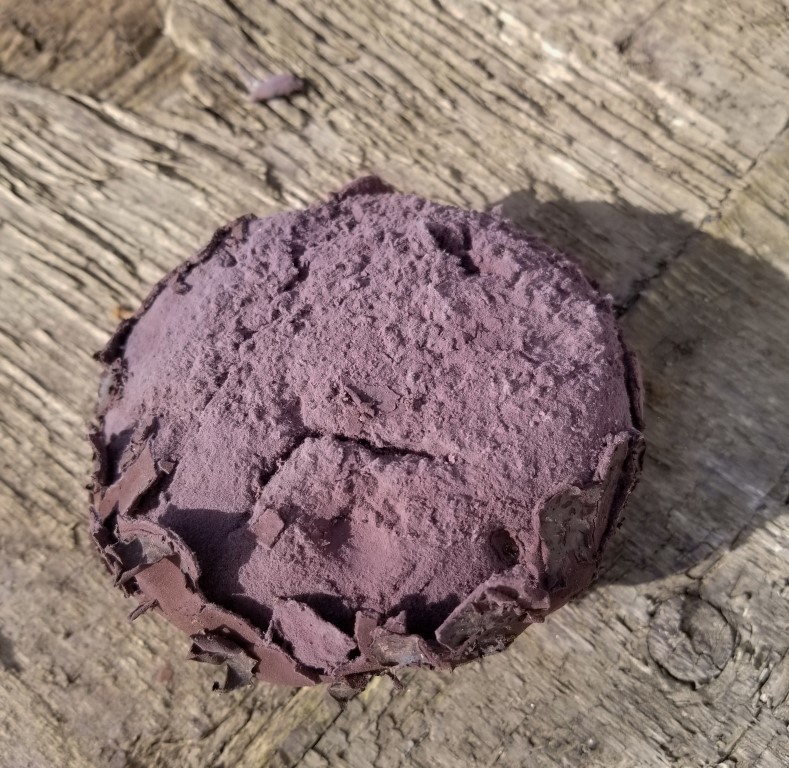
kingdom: Fungi
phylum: Basidiomycota
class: Agaricomycetes
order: Agaricales
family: Lycoperdaceae
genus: Calvatia
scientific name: Calvatia fragilis
